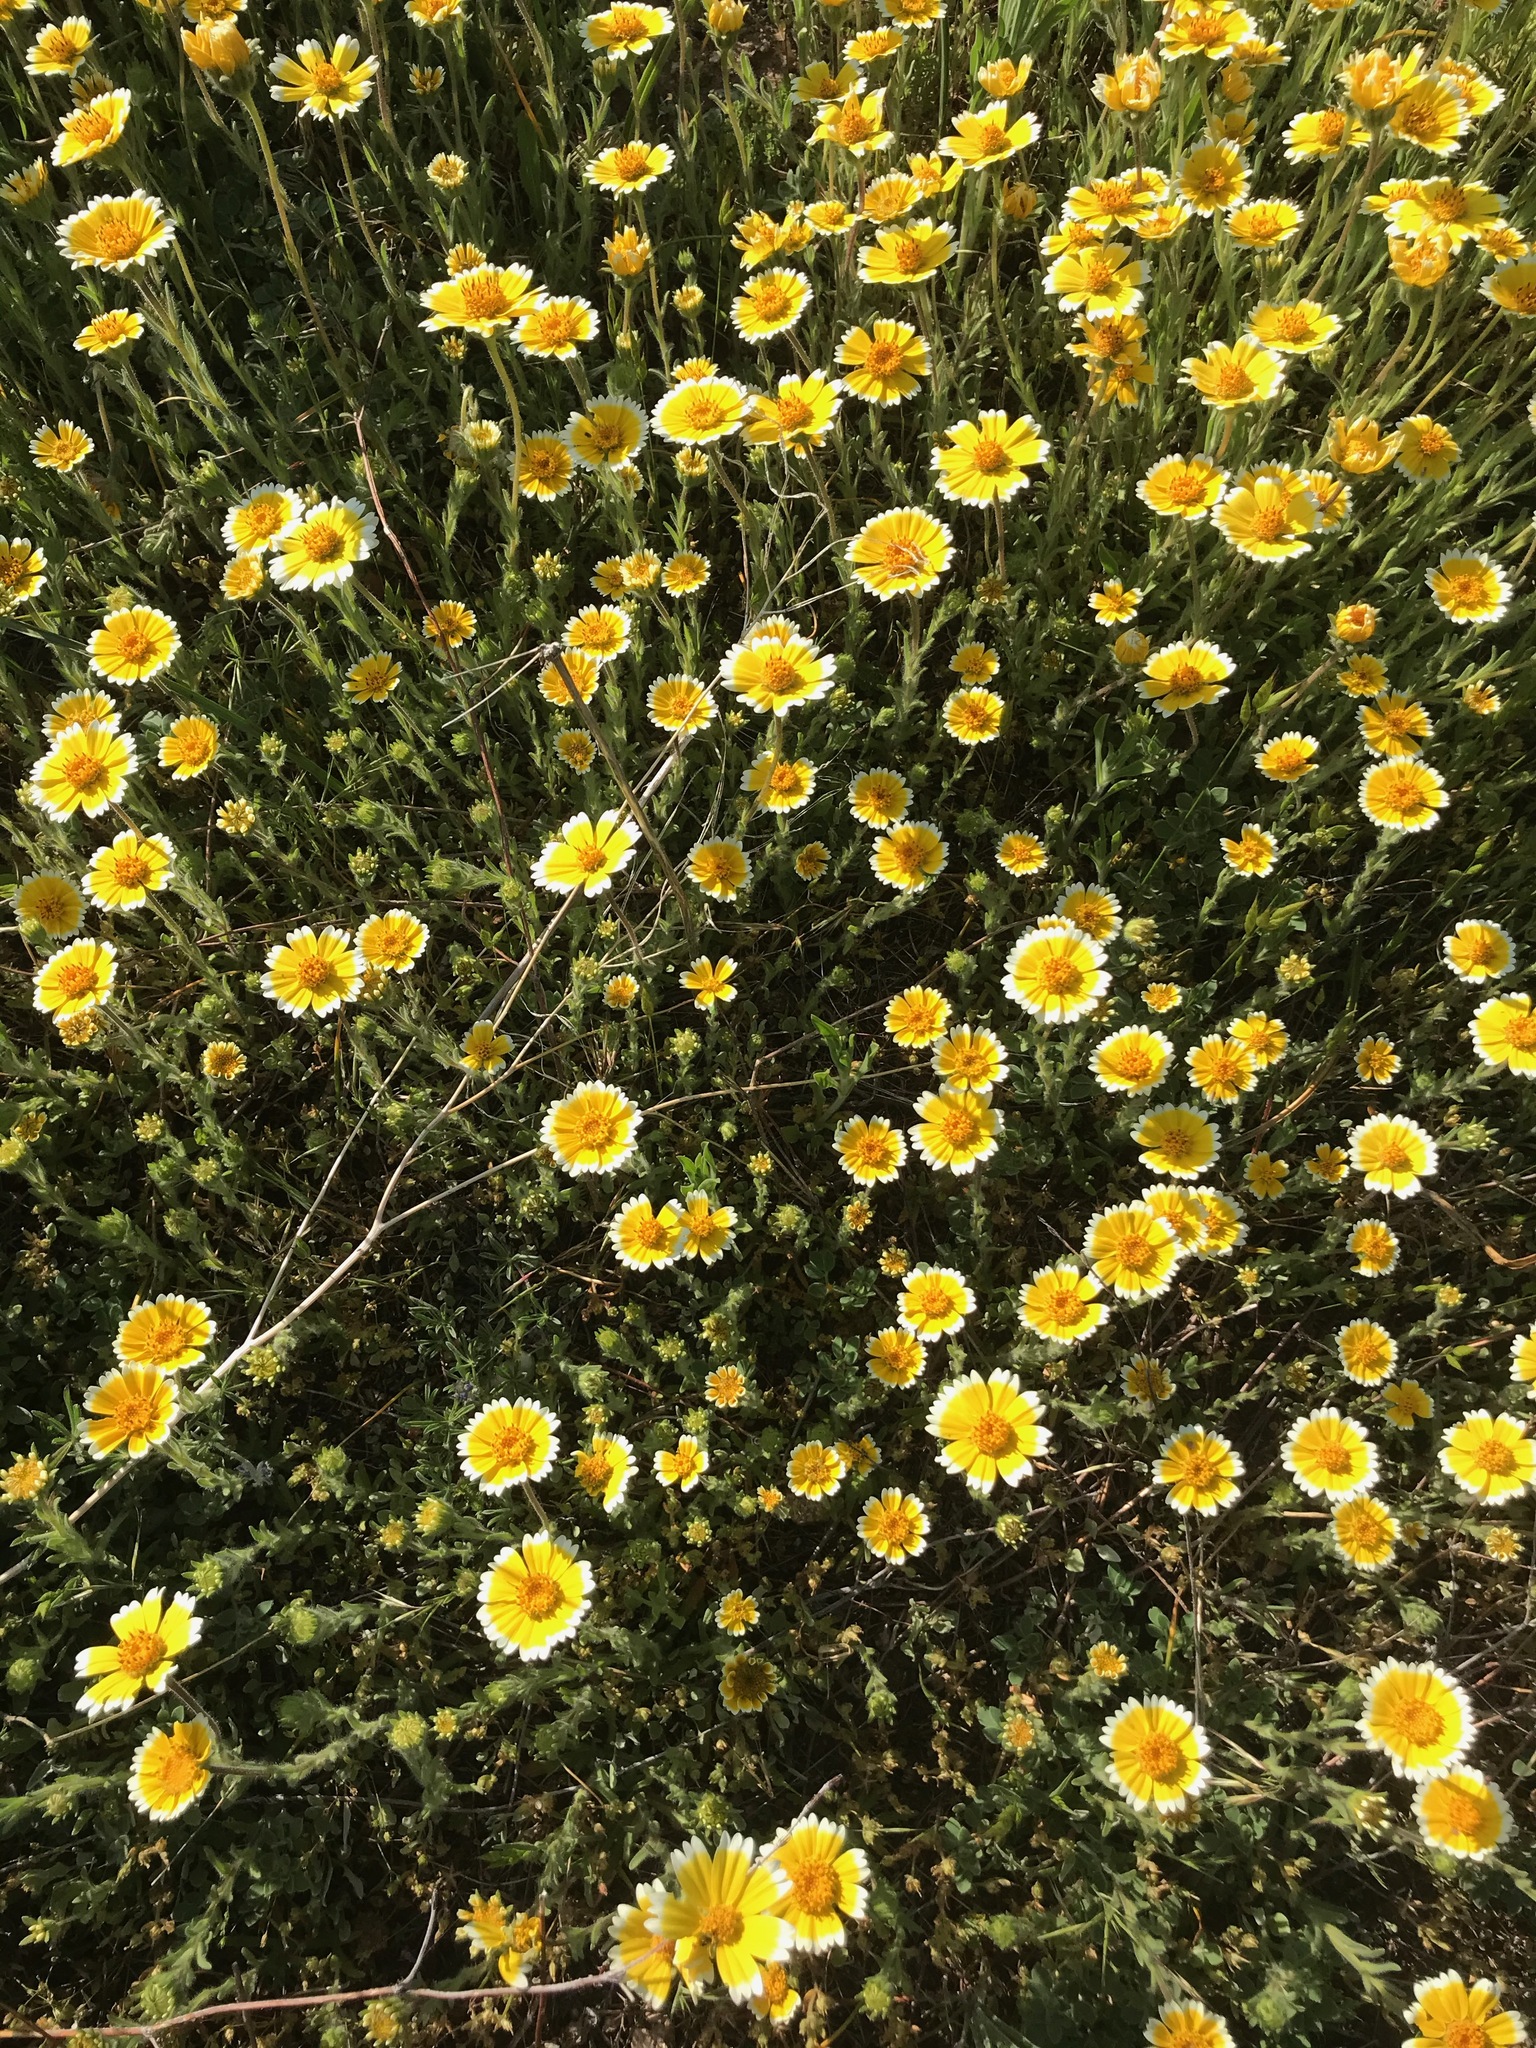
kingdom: Plantae
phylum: Tracheophyta
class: Magnoliopsida
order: Asterales
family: Asteraceae
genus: Layia
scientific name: Layia platyglossa
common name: Tidy-tips
